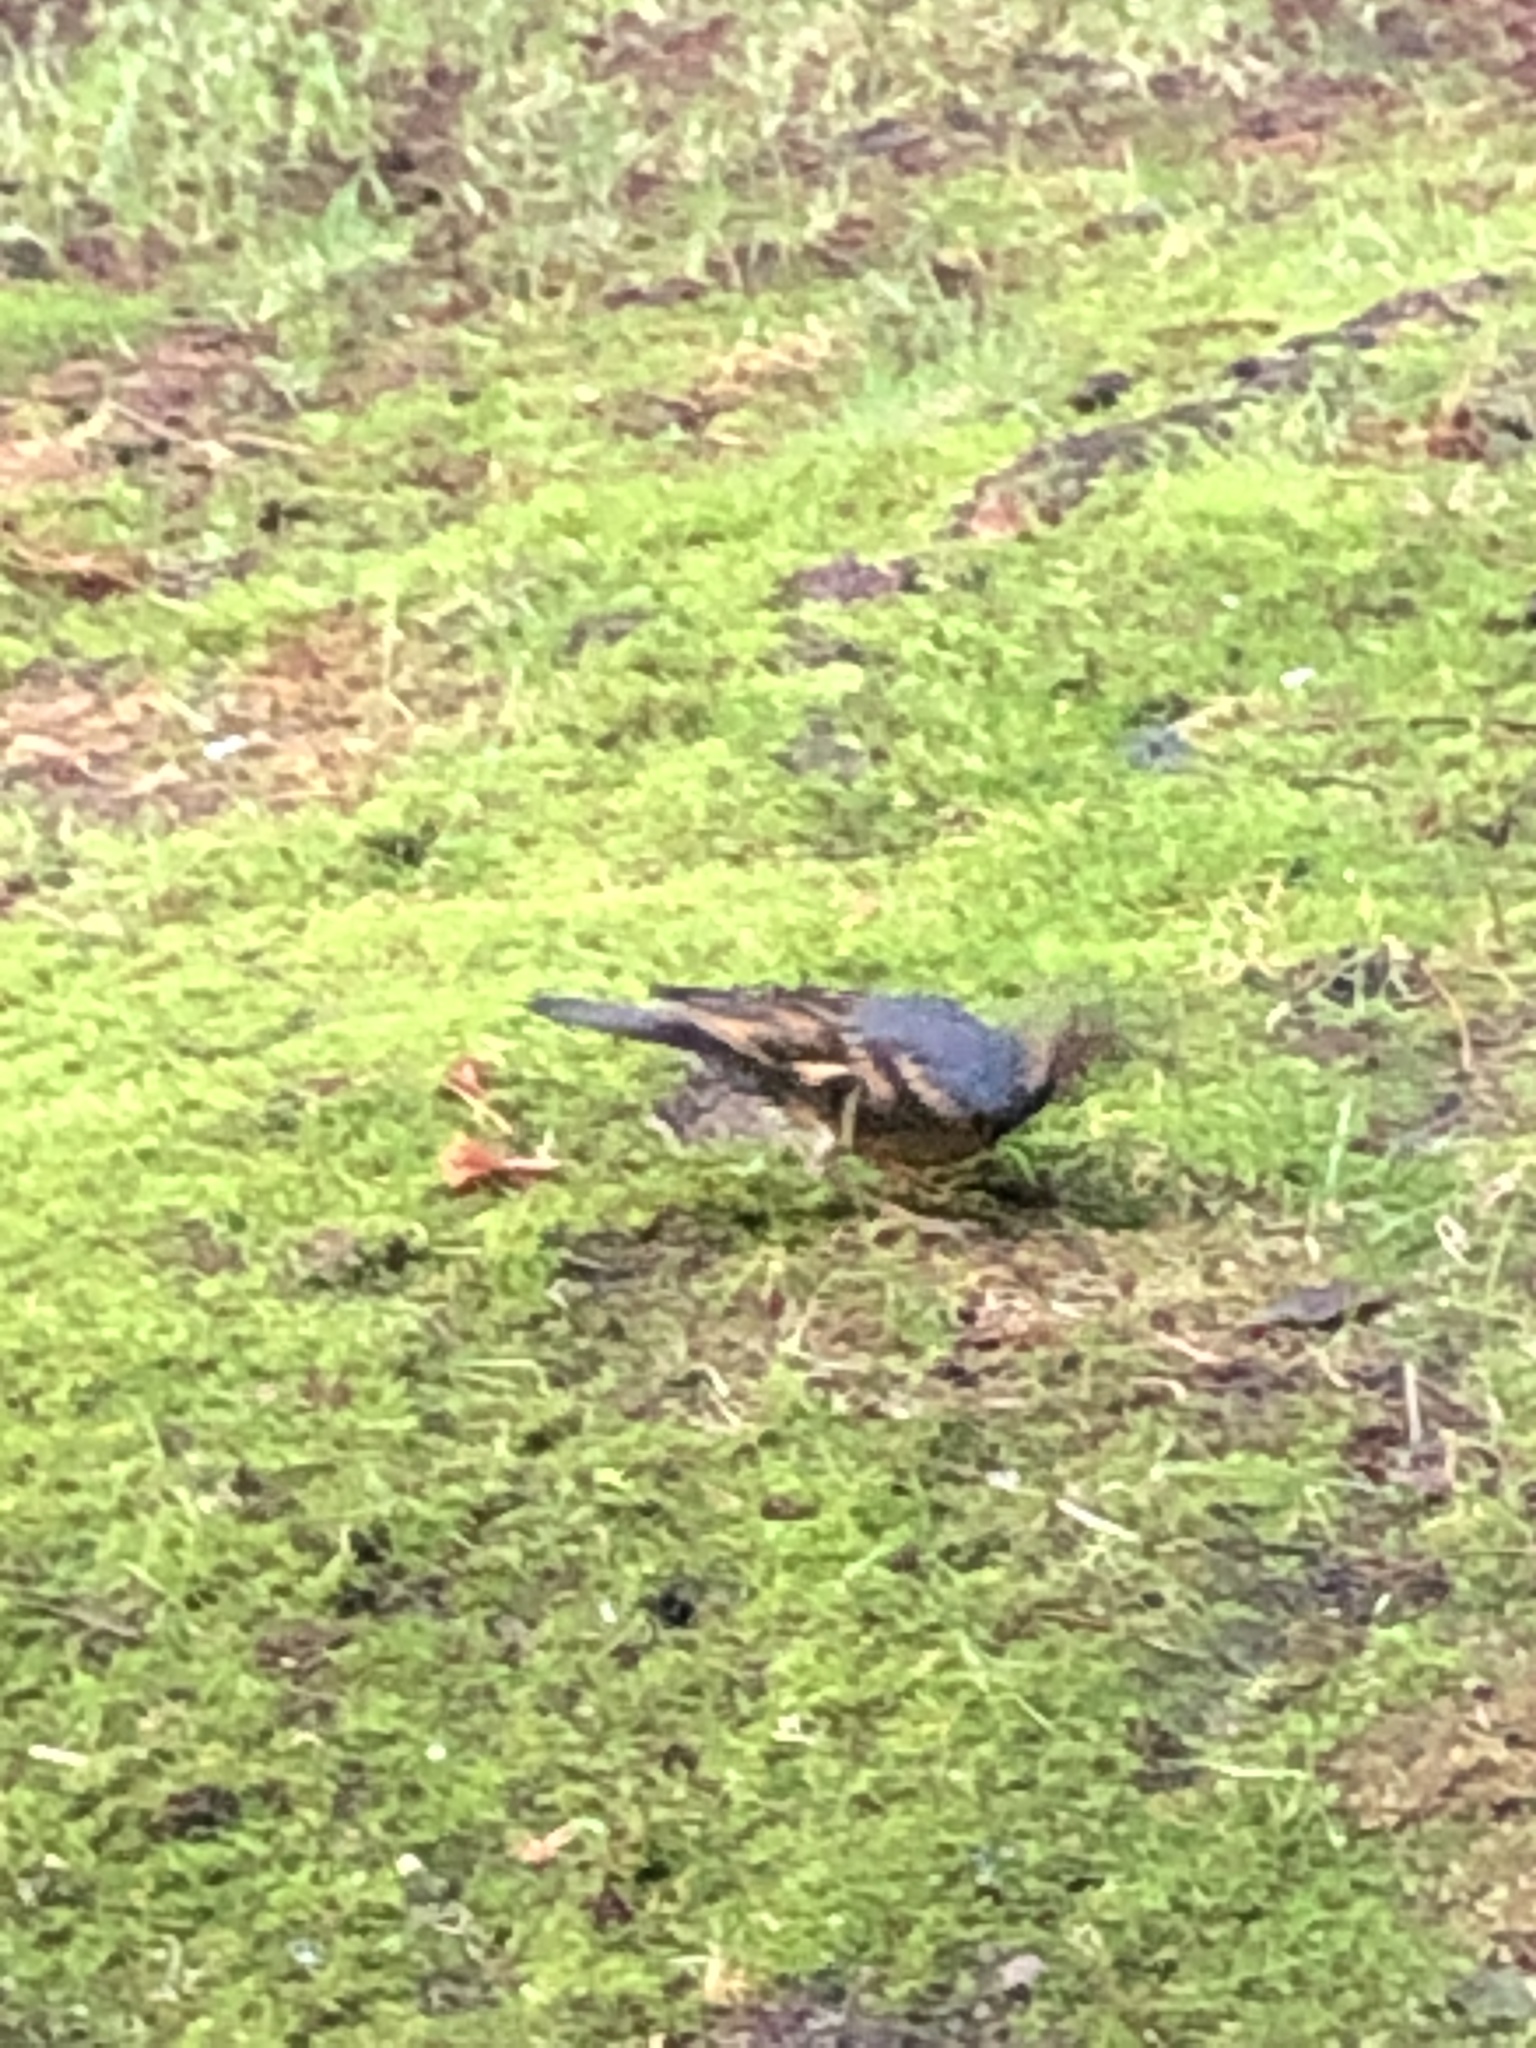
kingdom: Animalia
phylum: Chordata
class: Aves
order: Passeriformes
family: Turdidae
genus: Ixoreus
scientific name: Ixoreus naevius
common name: Varied thrush
